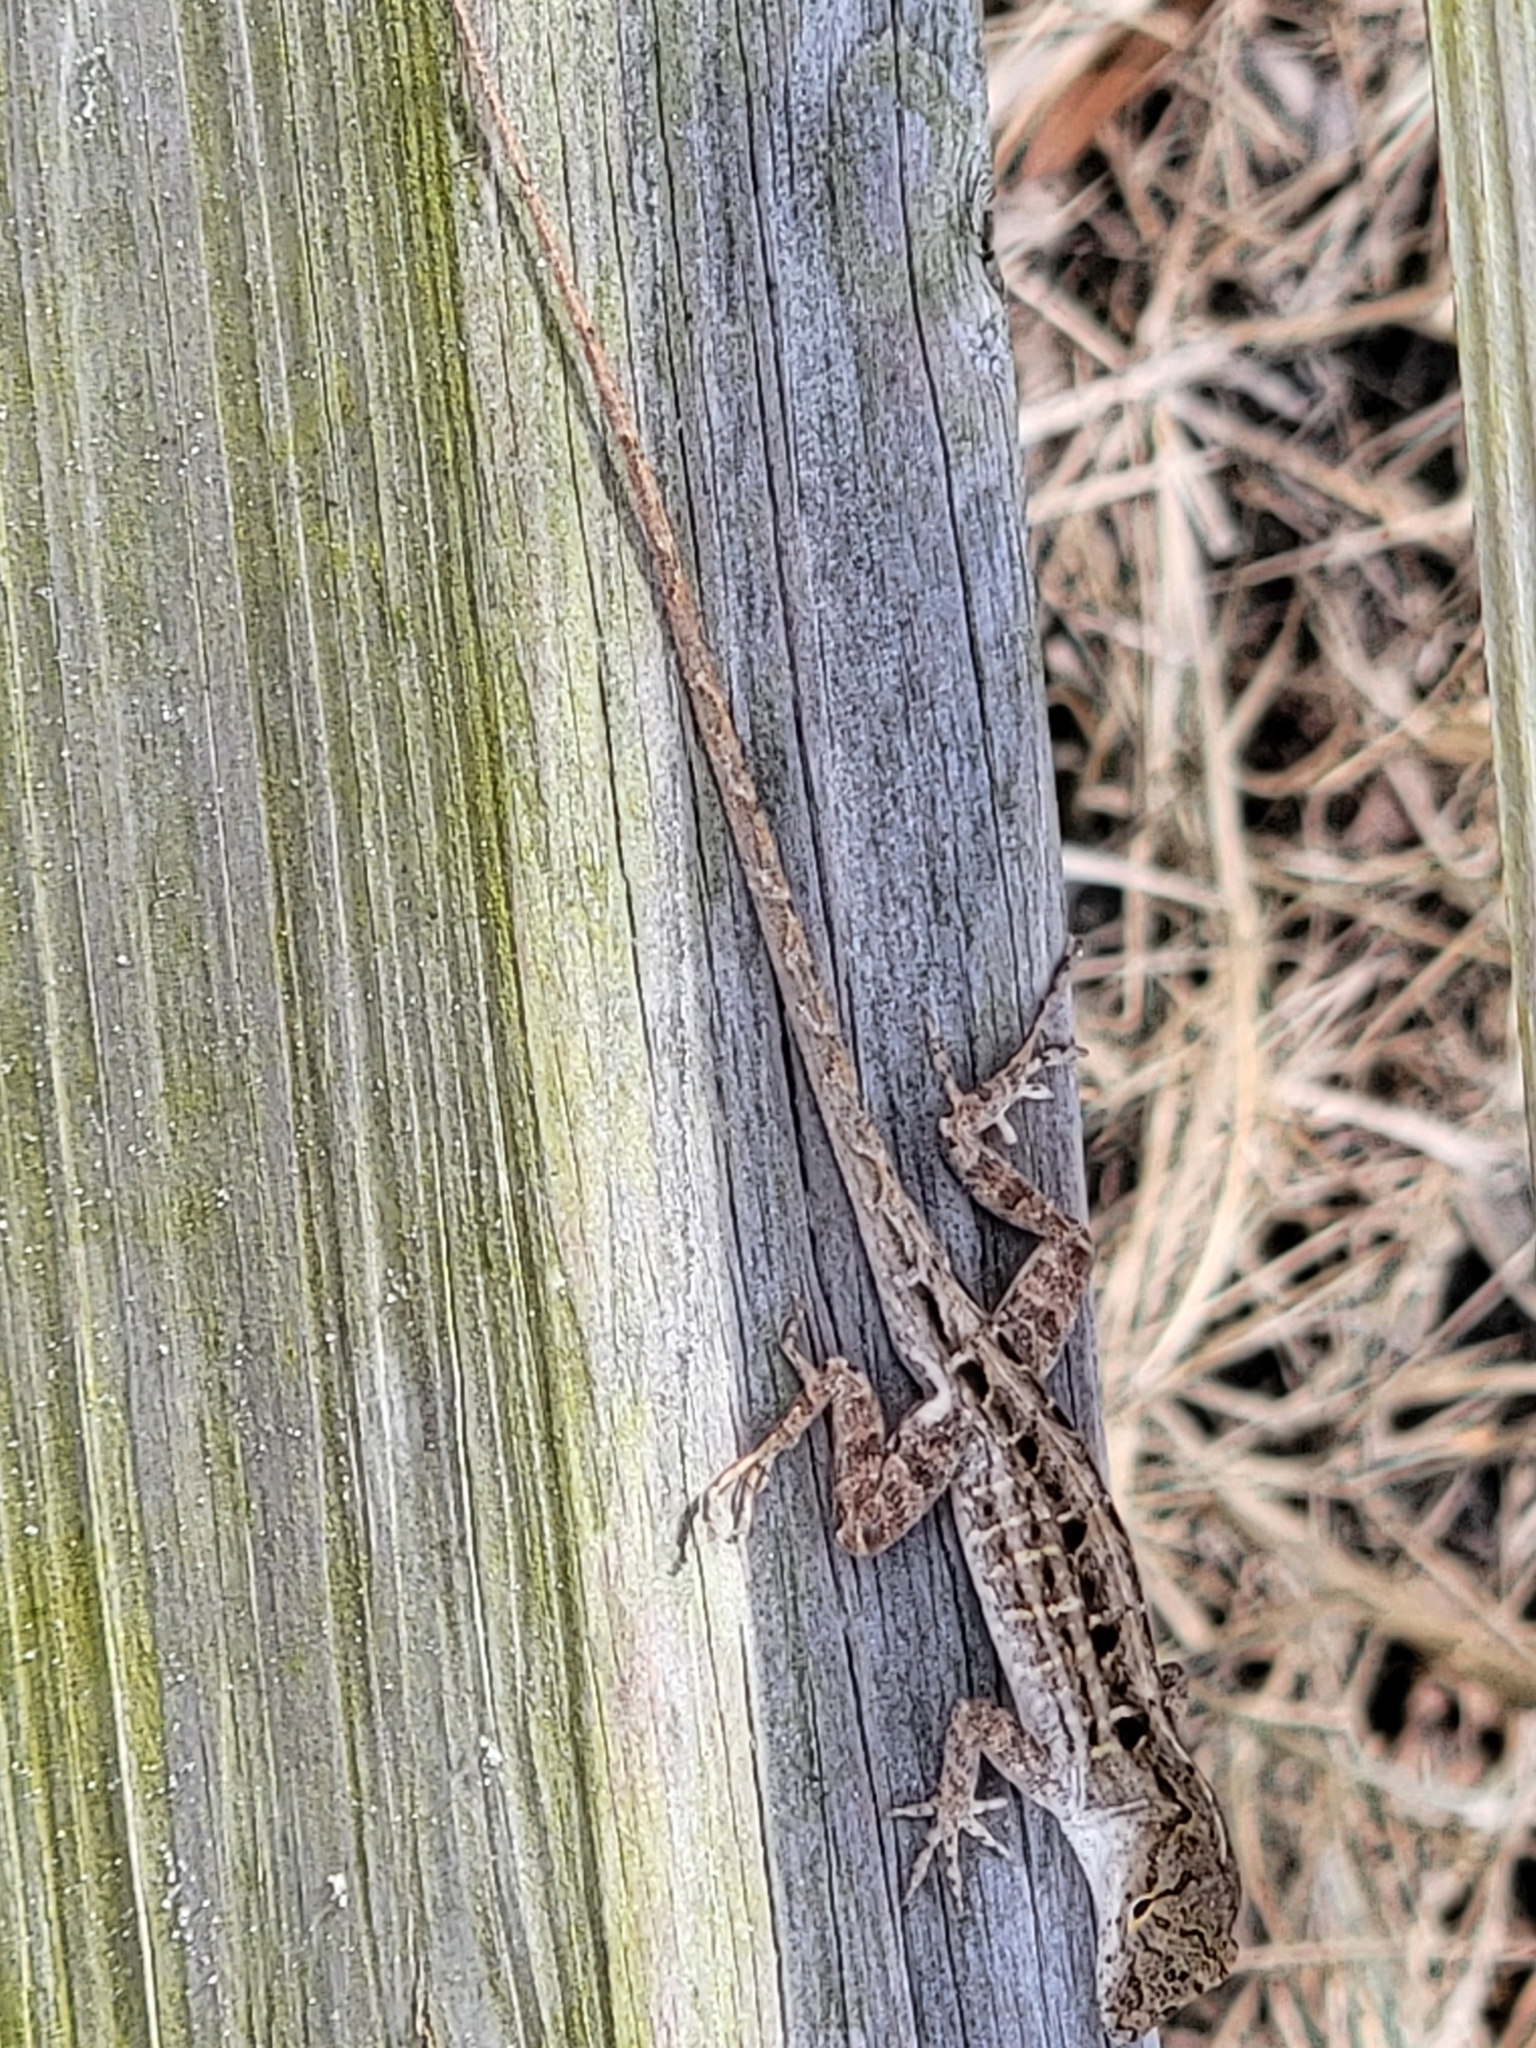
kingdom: Animalia
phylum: Chordata
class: Squamata
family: Dactyloidae
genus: Anolis
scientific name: Anolis sagrei
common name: Brown anole
